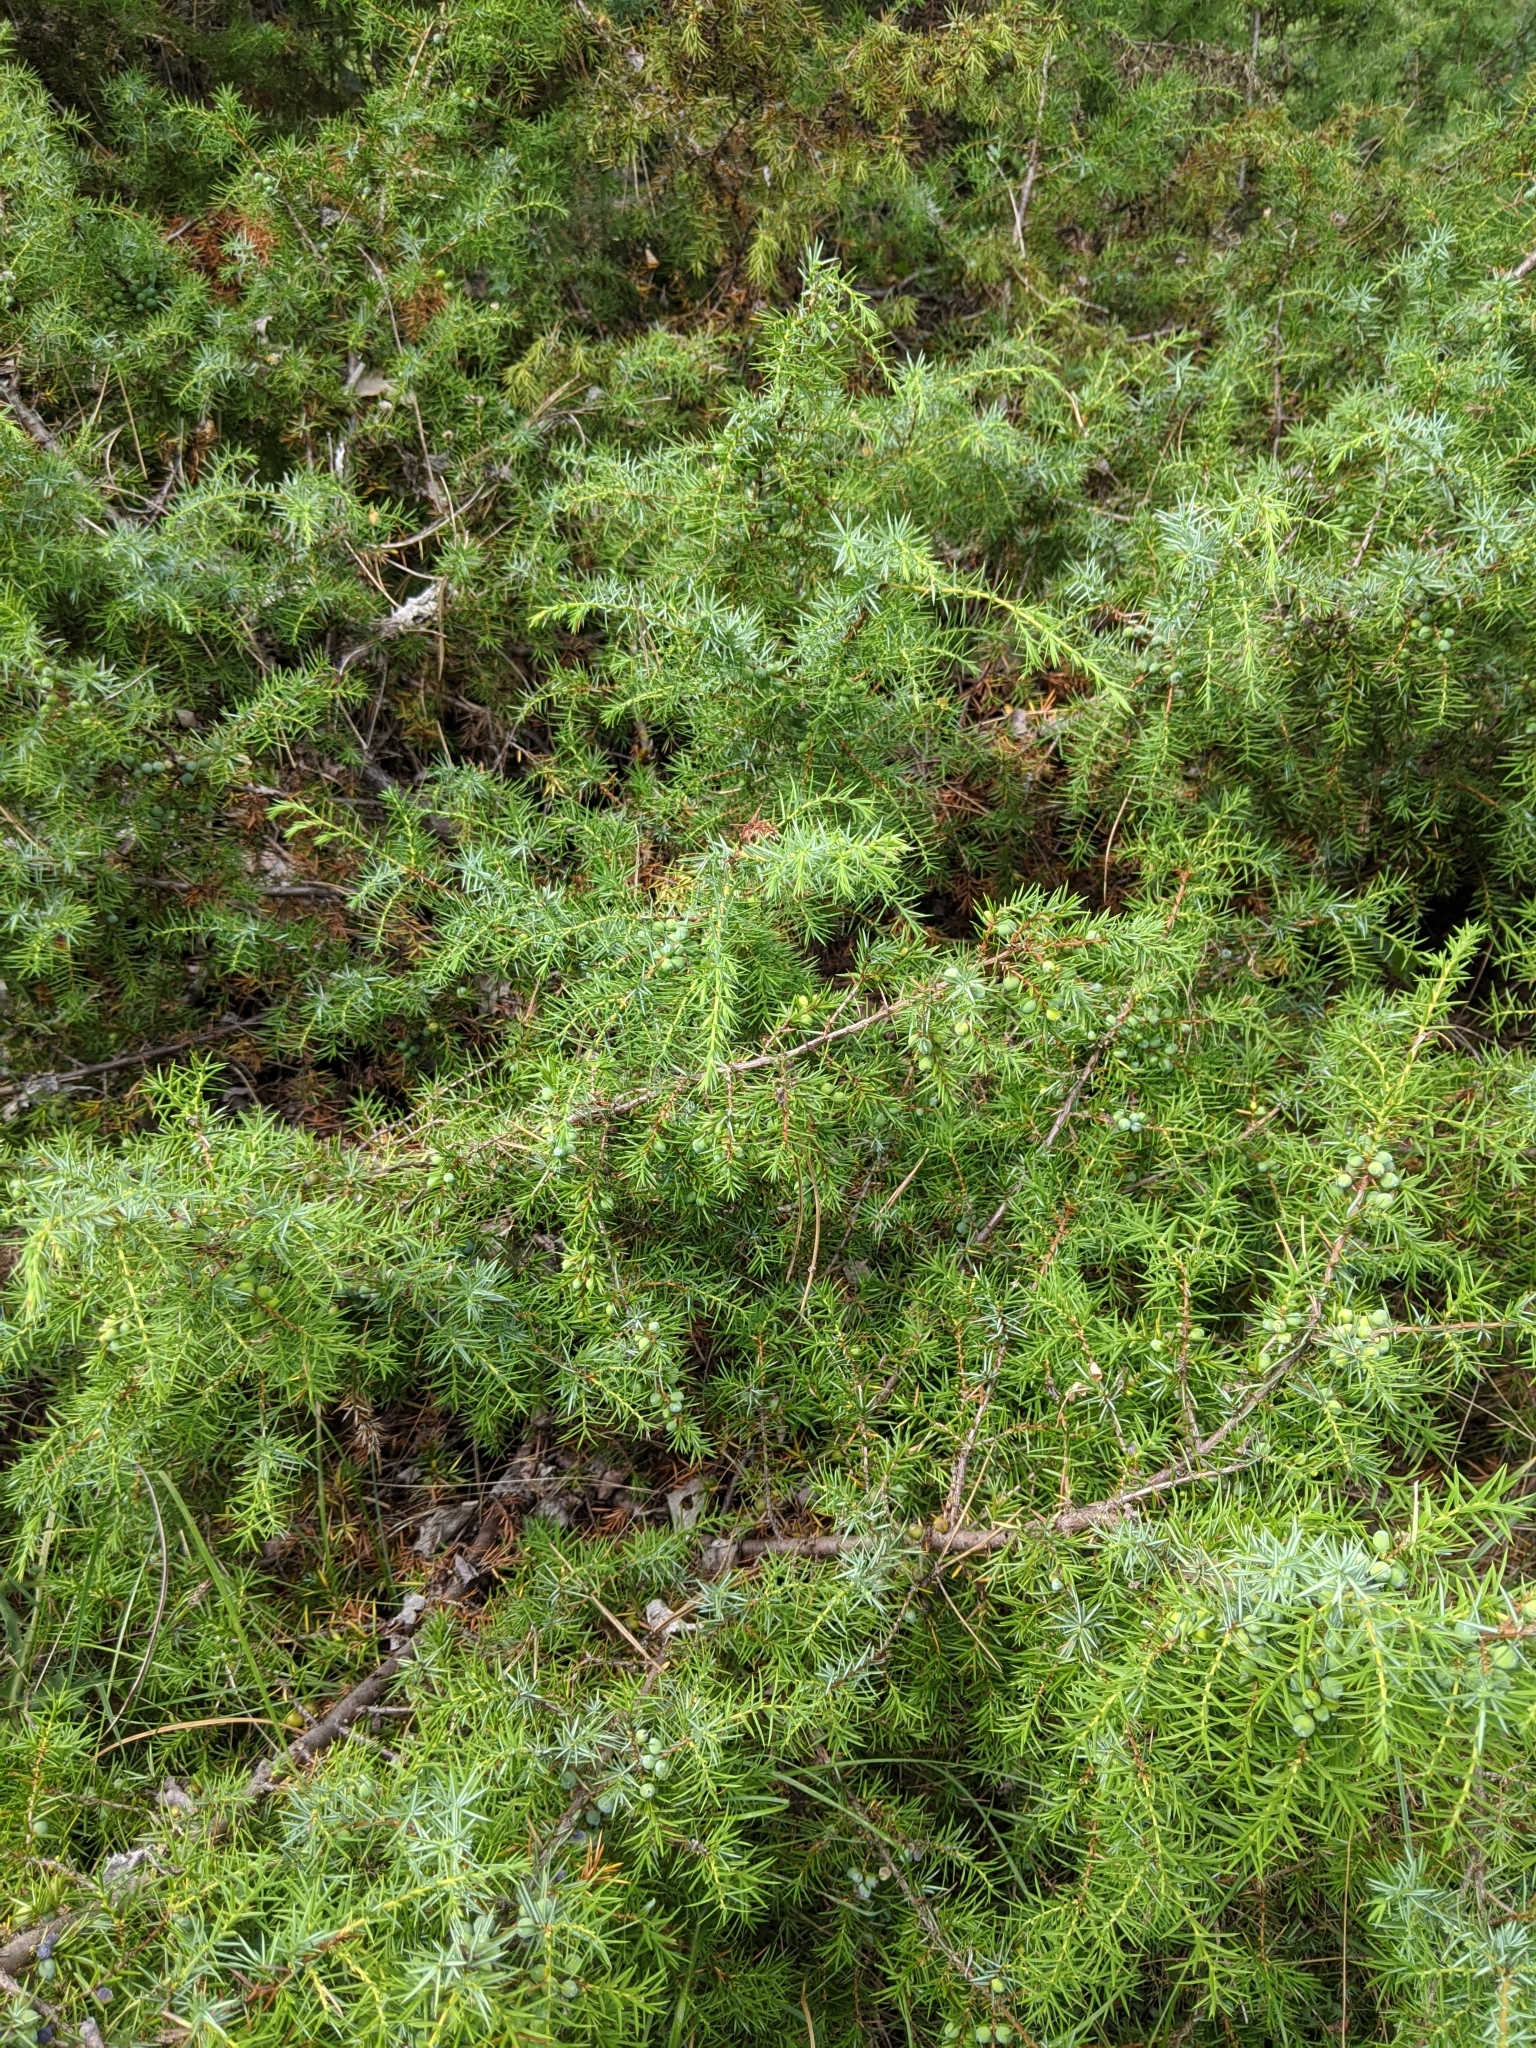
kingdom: Plantae
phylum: Tracheophyta
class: Pinopsida
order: Pinales
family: Cupressaceae
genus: Juniperus
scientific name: Juniperus communis
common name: Common juniper
